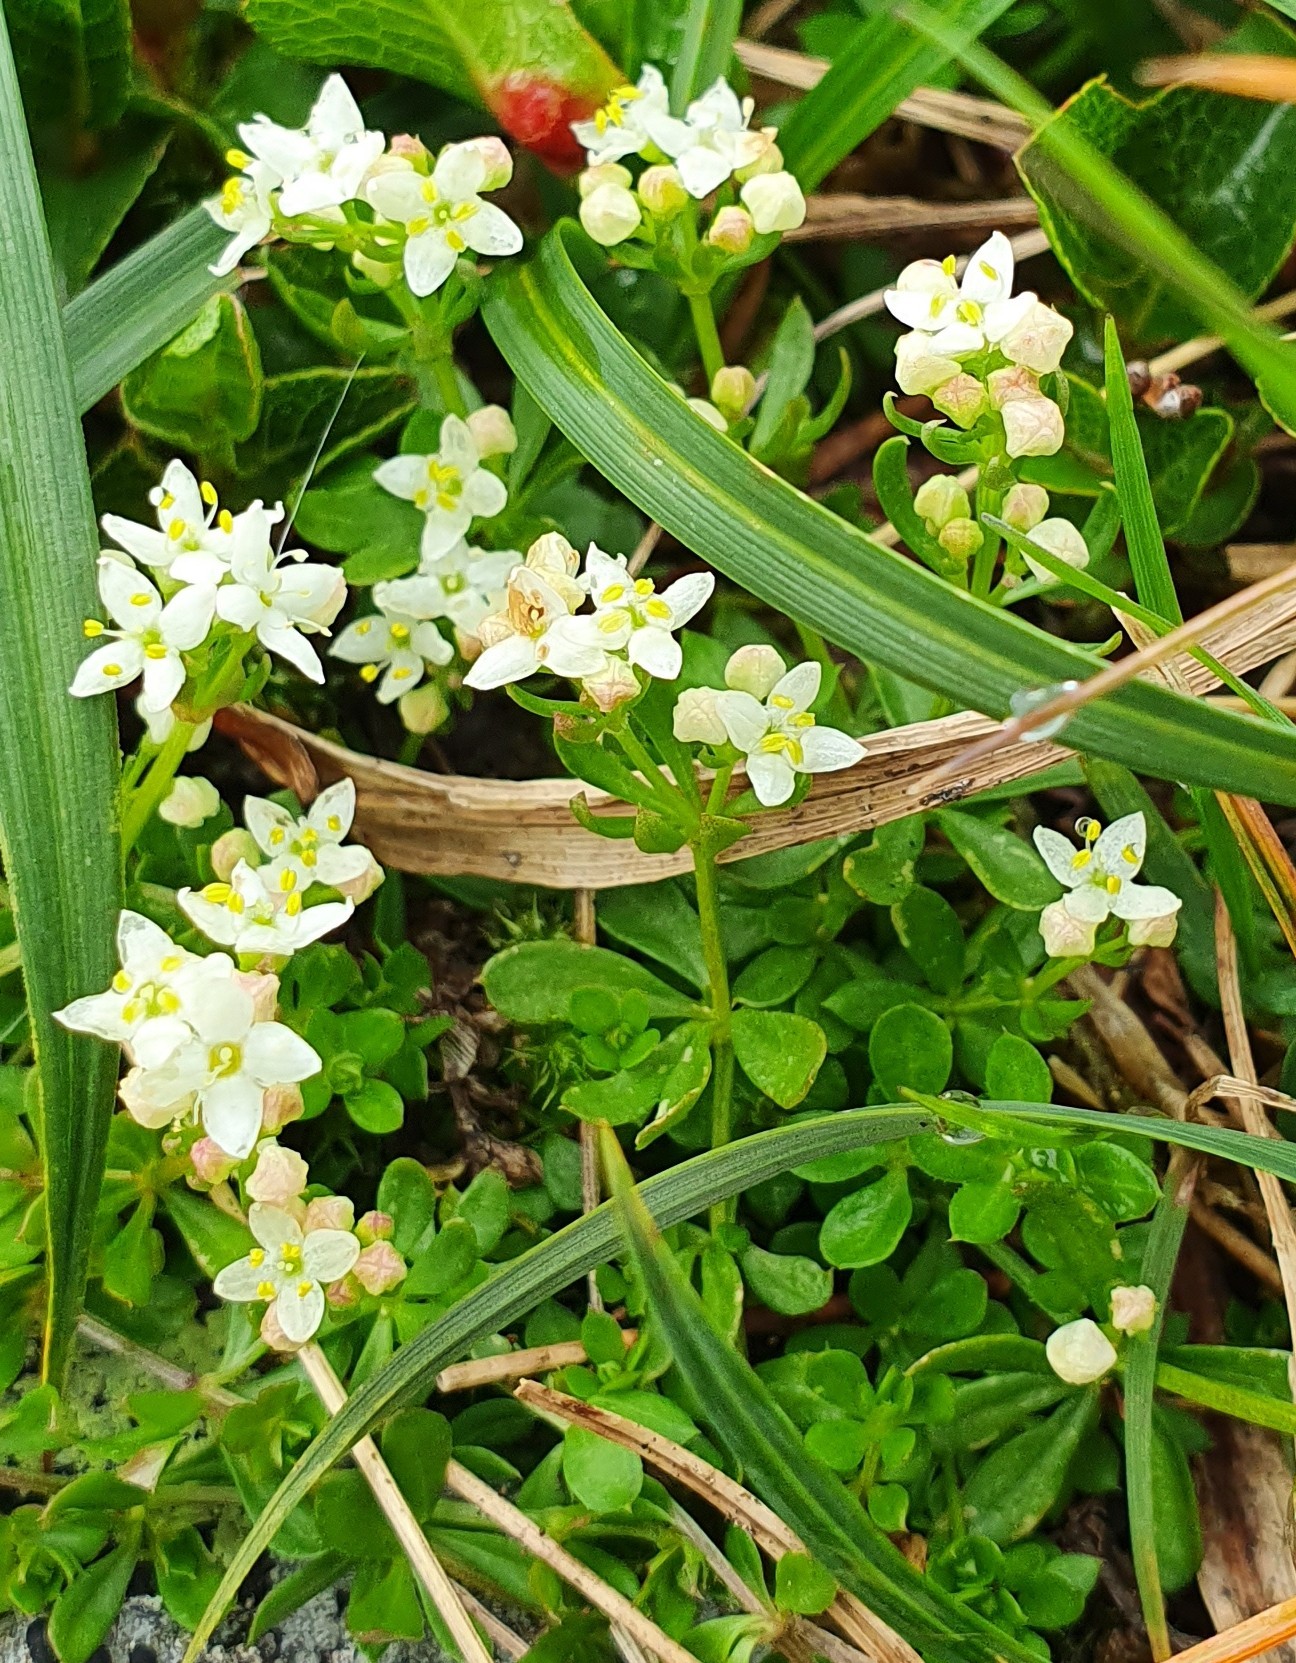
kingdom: Plantae
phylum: Tracheophyta
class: Magnoliopsida
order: Gentianales
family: Rubiaceae
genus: Galium
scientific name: Galium saxatile
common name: Heath bedstraw
